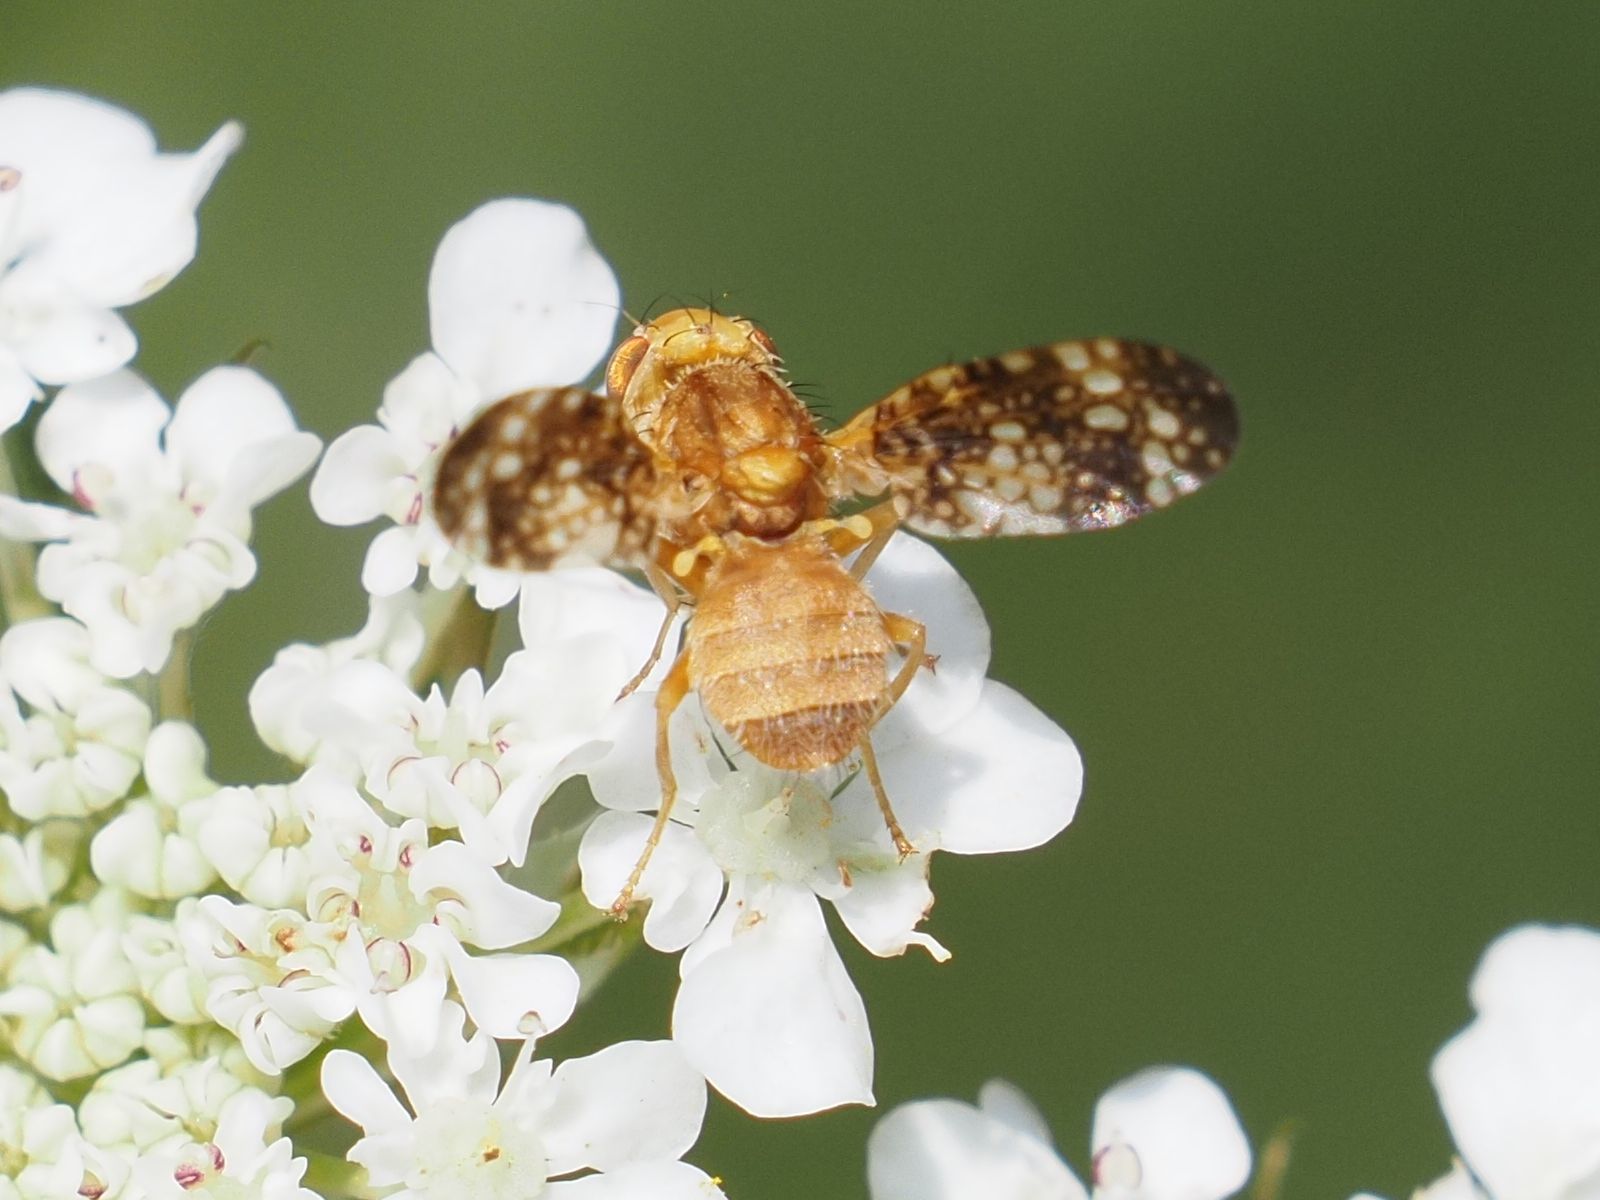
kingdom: Animalia
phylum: Arthropoda
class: Insecta
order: Diptera
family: Tephritidae
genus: Oxyna
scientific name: Oxyna flavipennis
